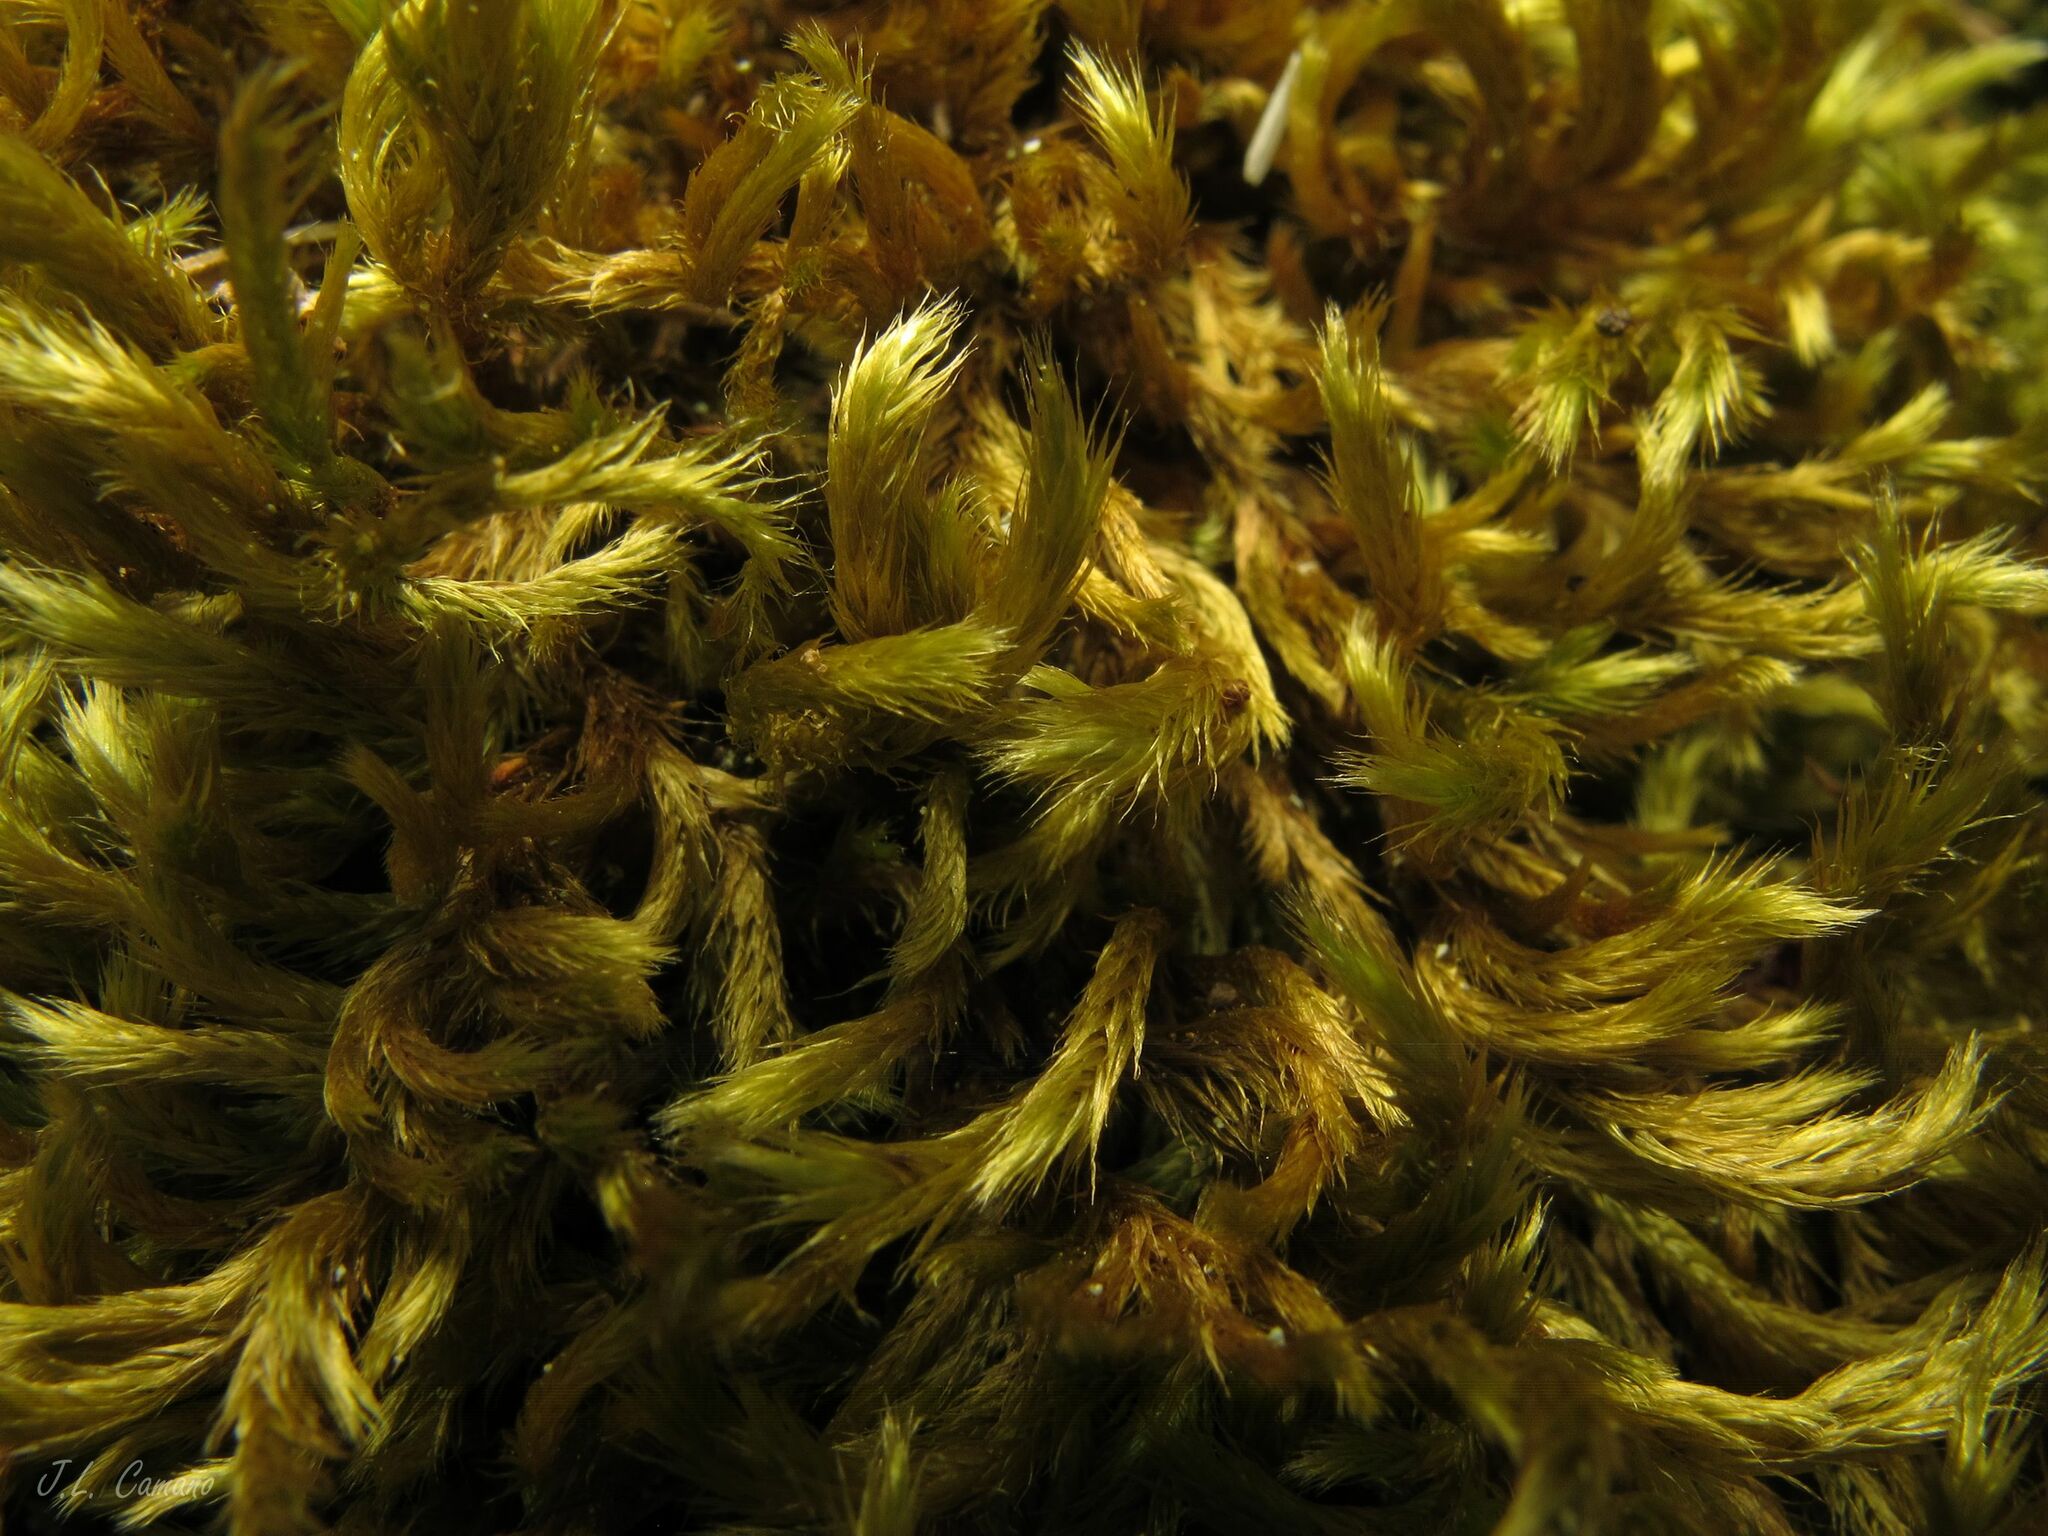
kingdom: Plantae
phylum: Bryophyta
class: Bryopsida
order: Hypnales
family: Brachytheciaceae
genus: Homalothecium
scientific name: Homalothecium sericeum
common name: Silky wall feather-moss
